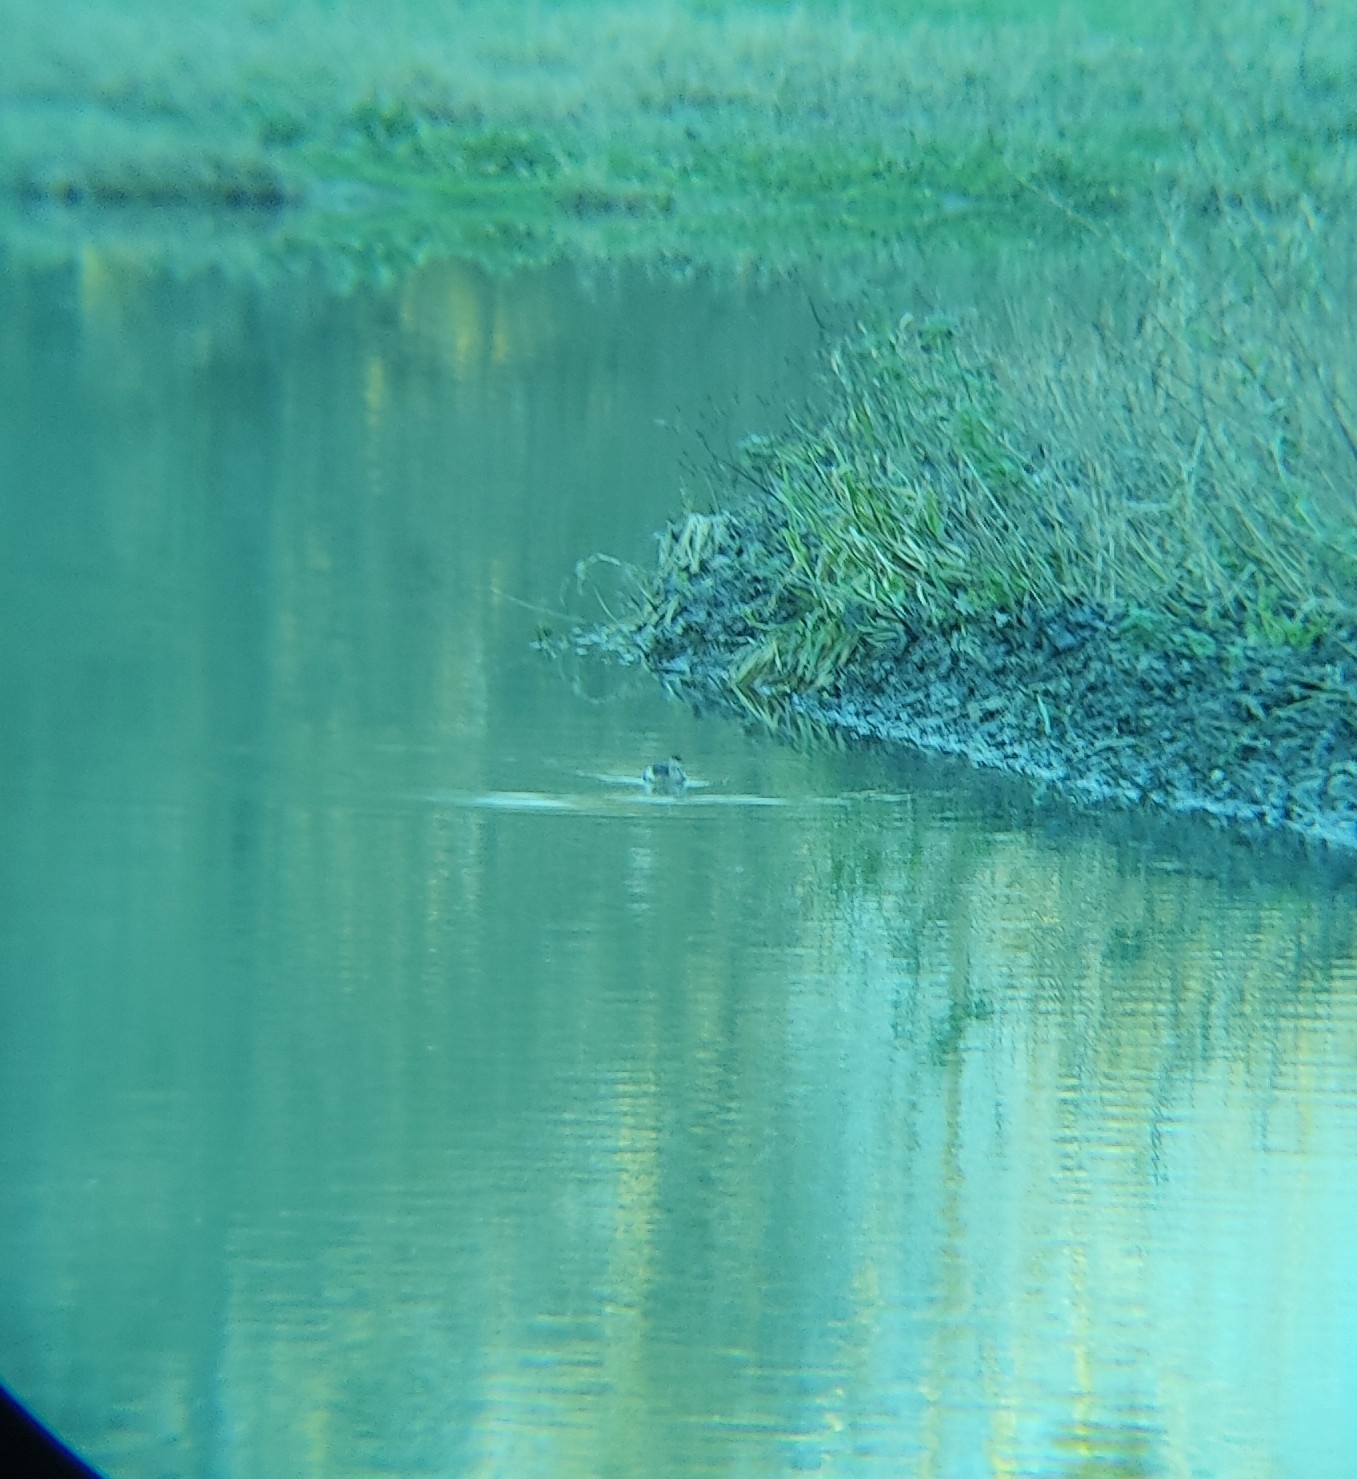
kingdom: Animalia
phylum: Chordata
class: Aves
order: Podicipediformes
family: Podicipedidae
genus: Tachybaptus
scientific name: Tachybaptus ruficollis
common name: Little grebe
